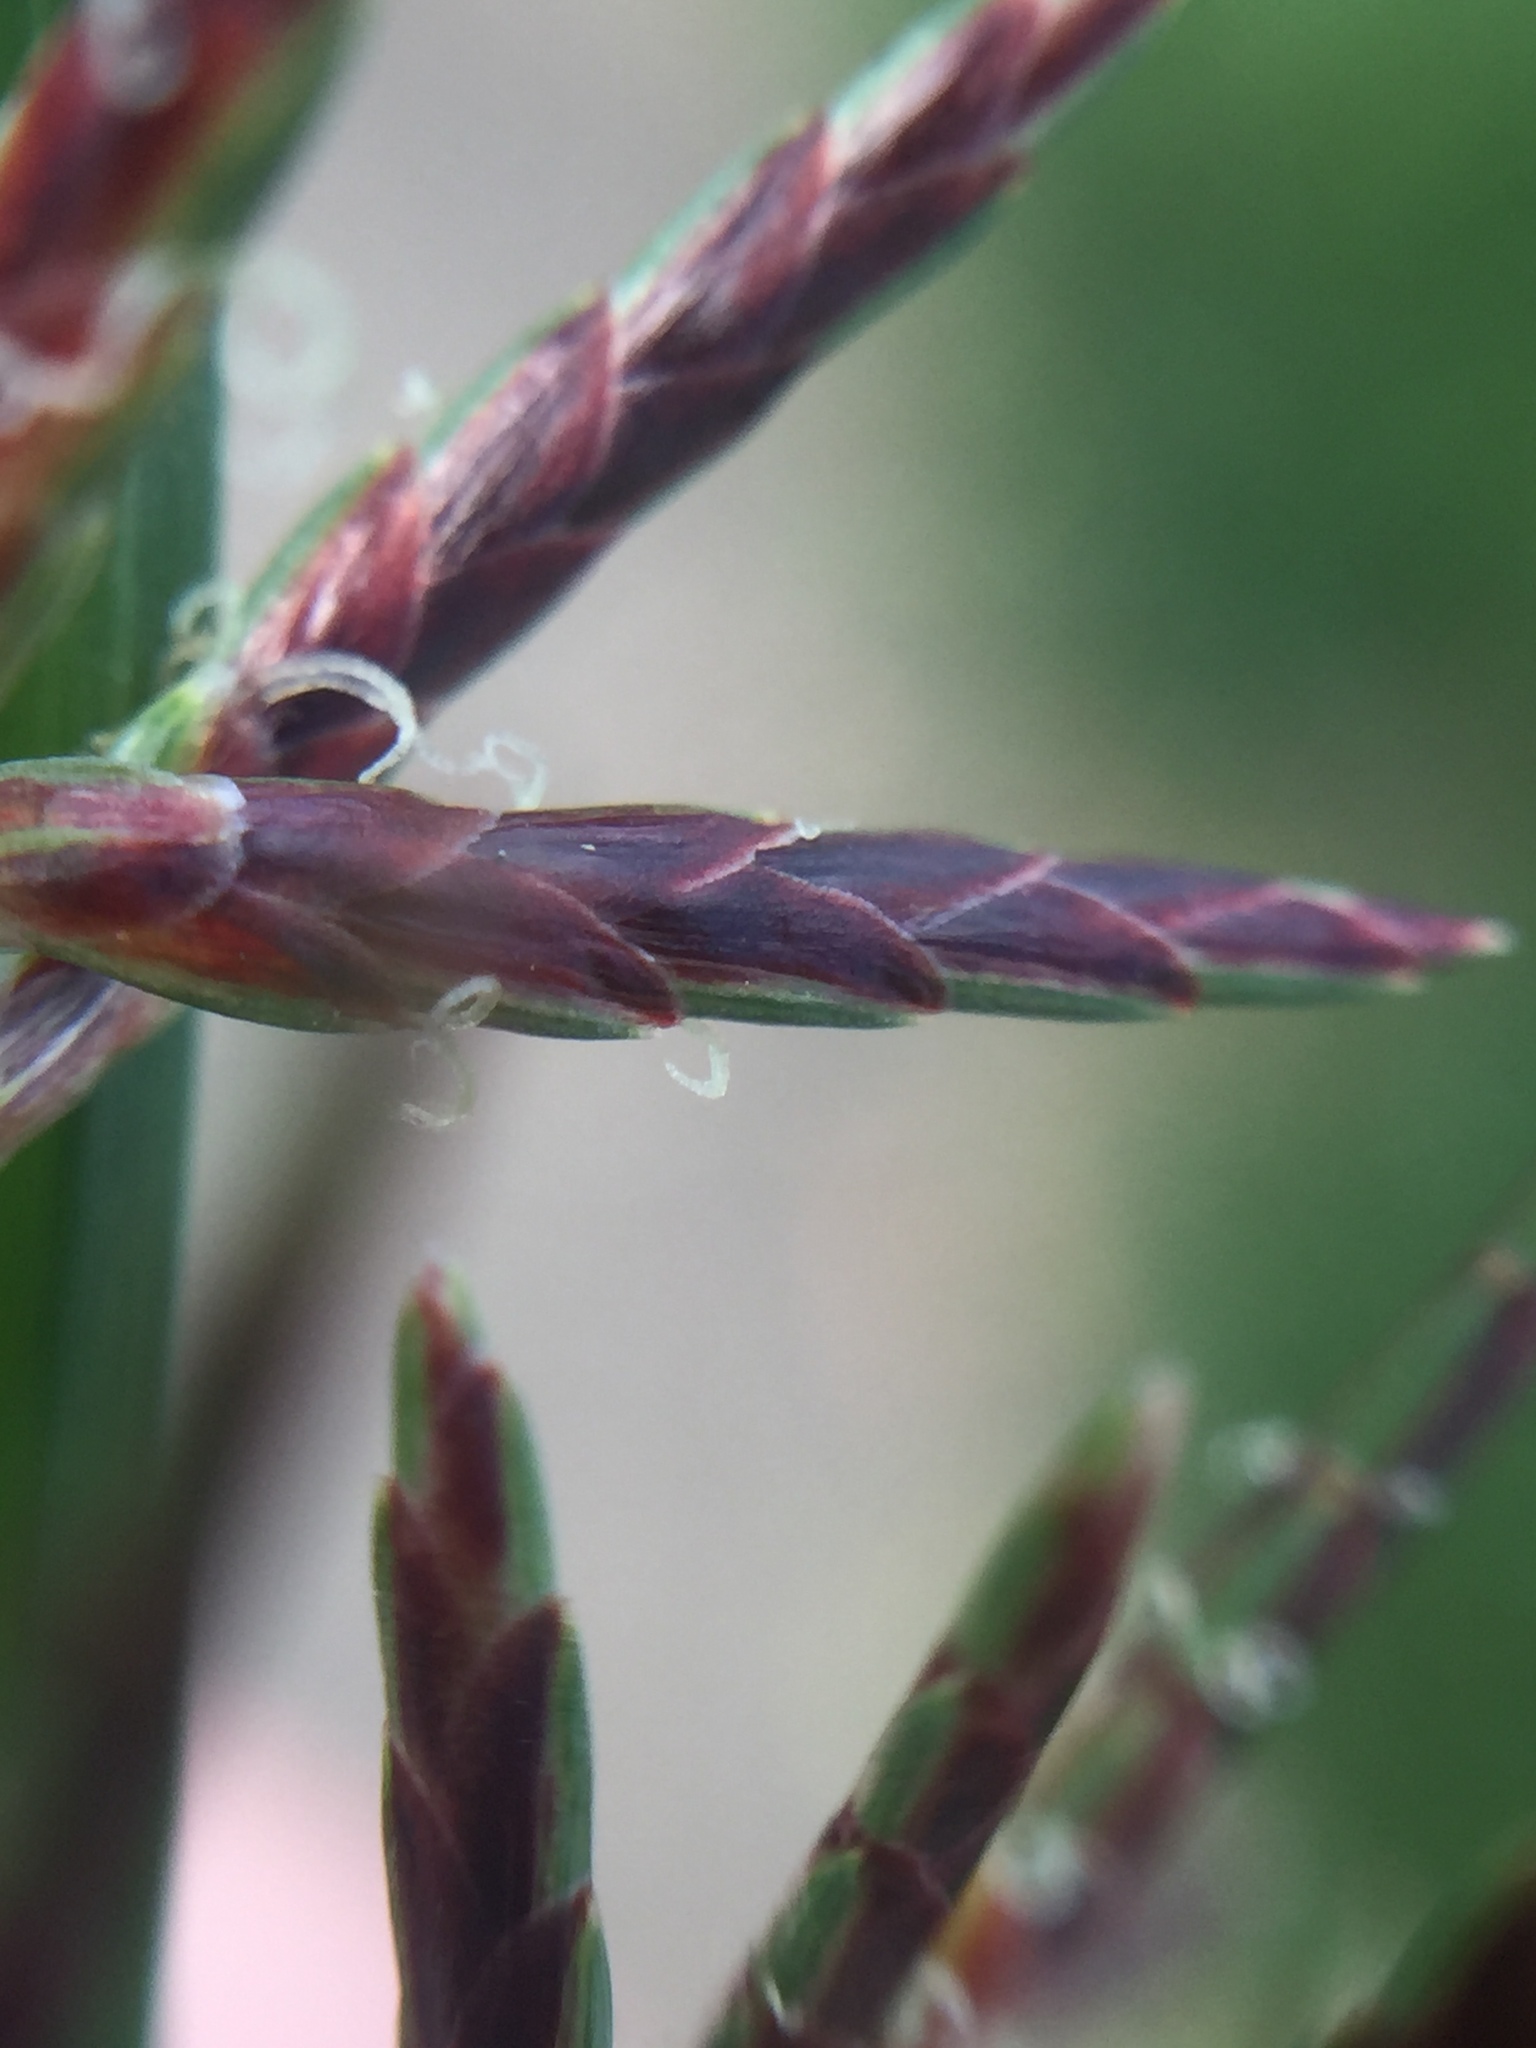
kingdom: Plantae
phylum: Tracheophyta
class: Liliopsida
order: Poales
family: Cyperaceae
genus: Cyperus
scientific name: Cyperus rotundus
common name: Nutgrass
